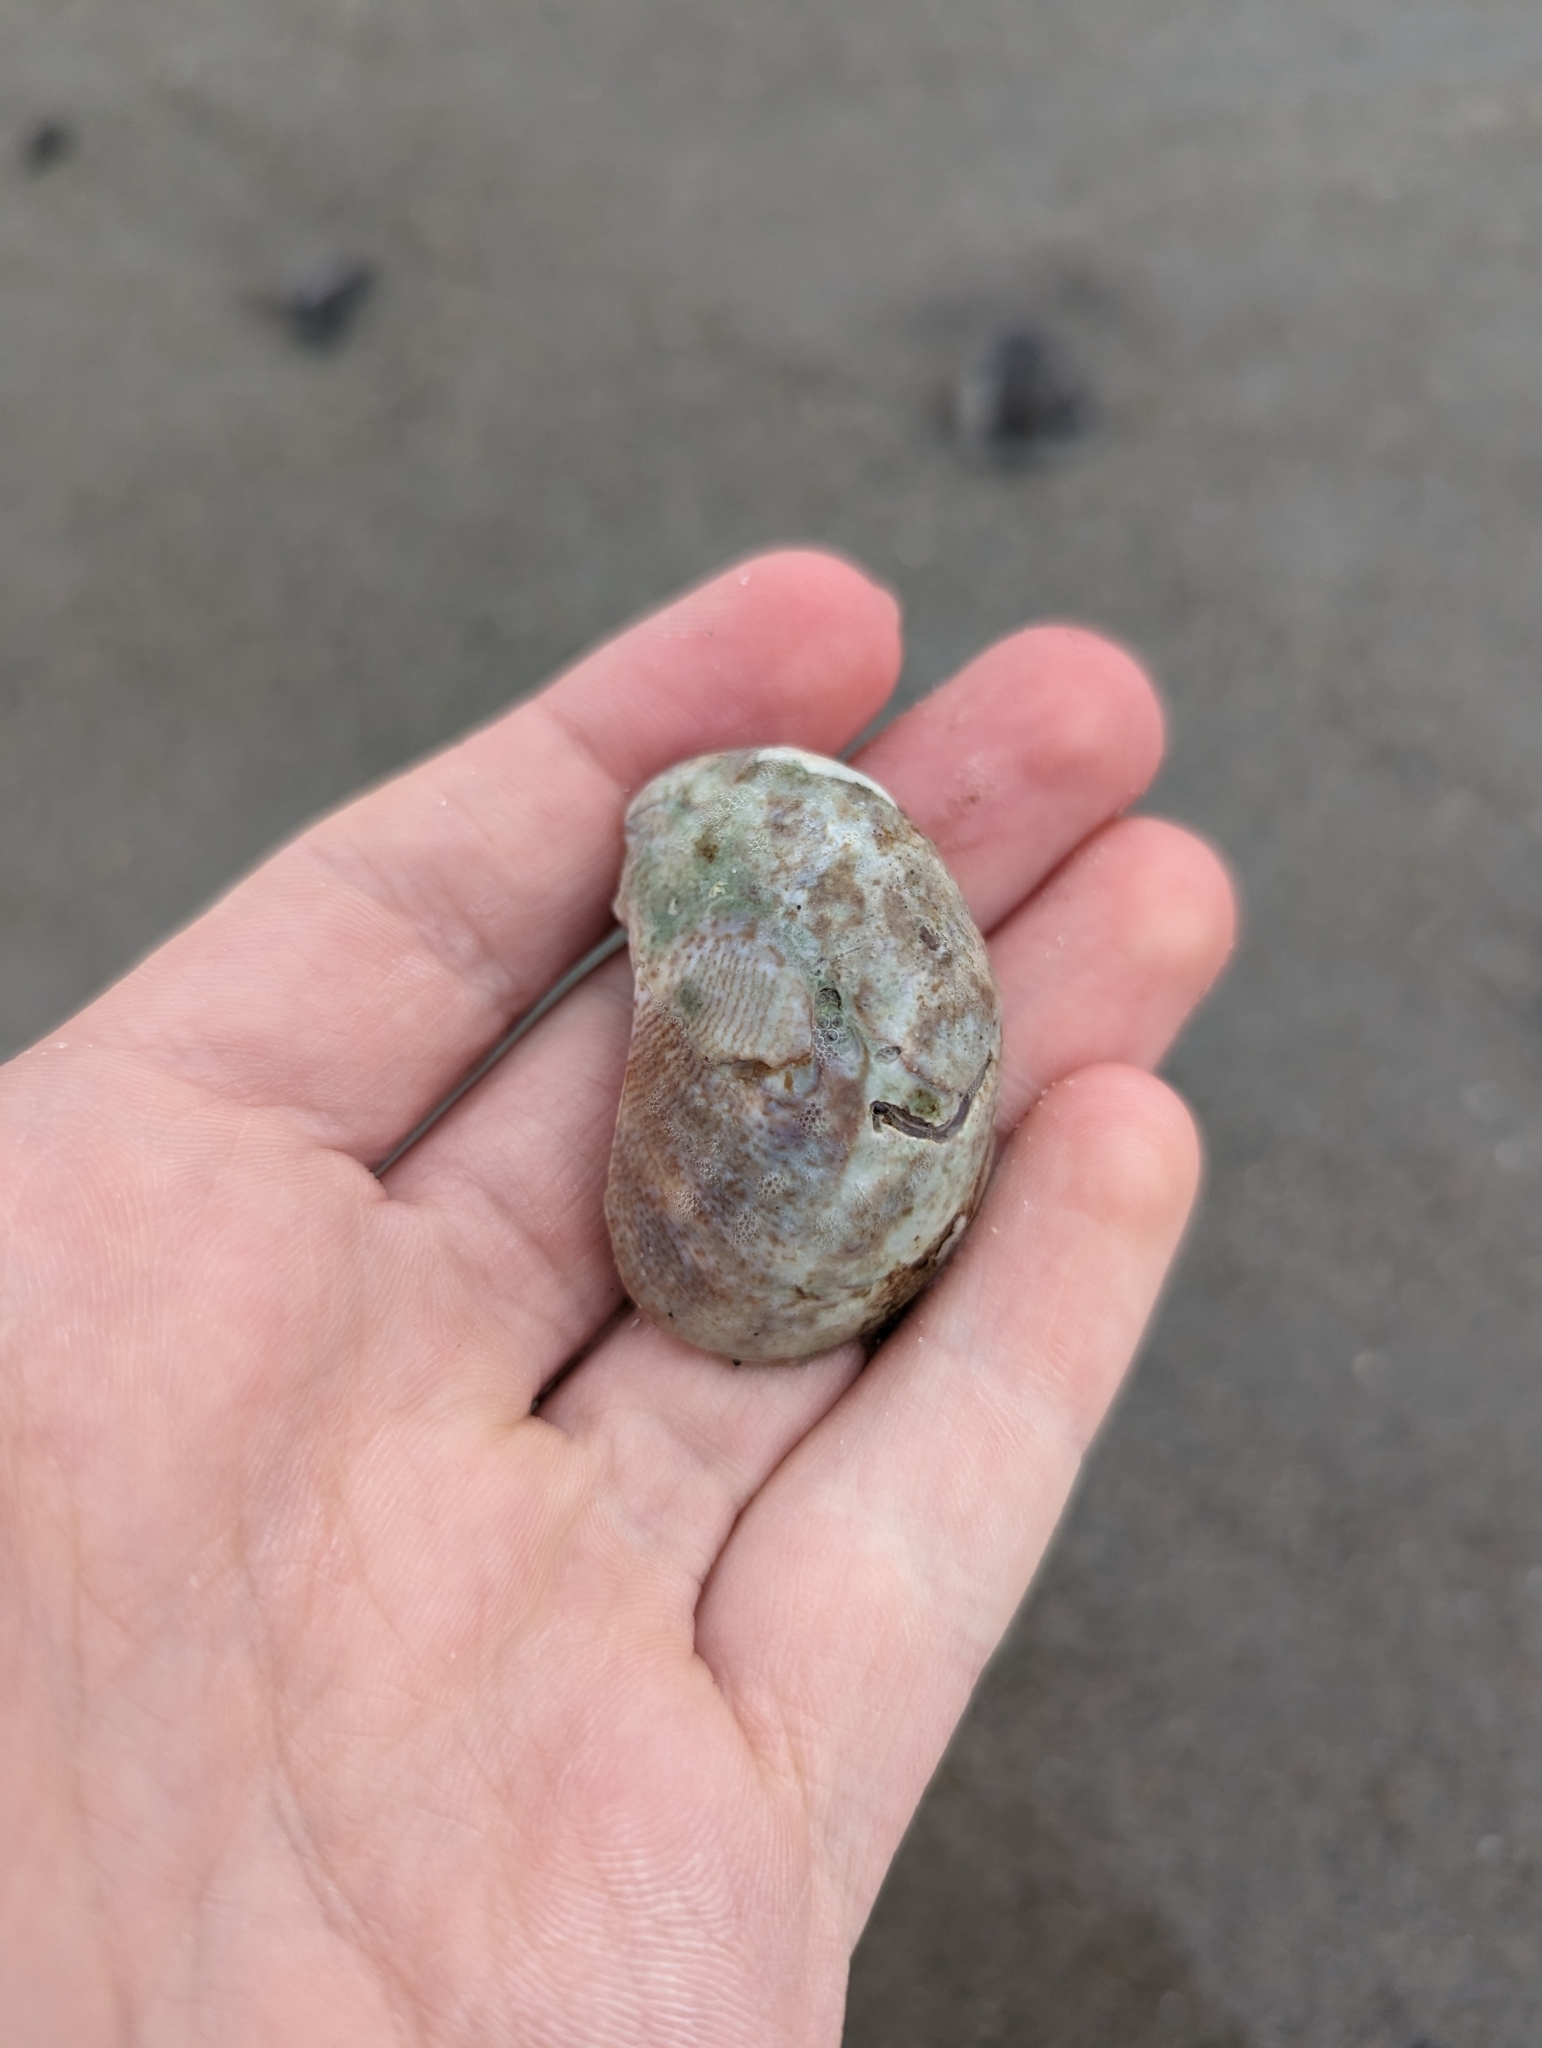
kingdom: Animalia
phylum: Mollusca
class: Gastropoda
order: Littorinimorpha
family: Calyptraeidae
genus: Crepidula
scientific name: Crepidula fornicata
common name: Slipper limpet
